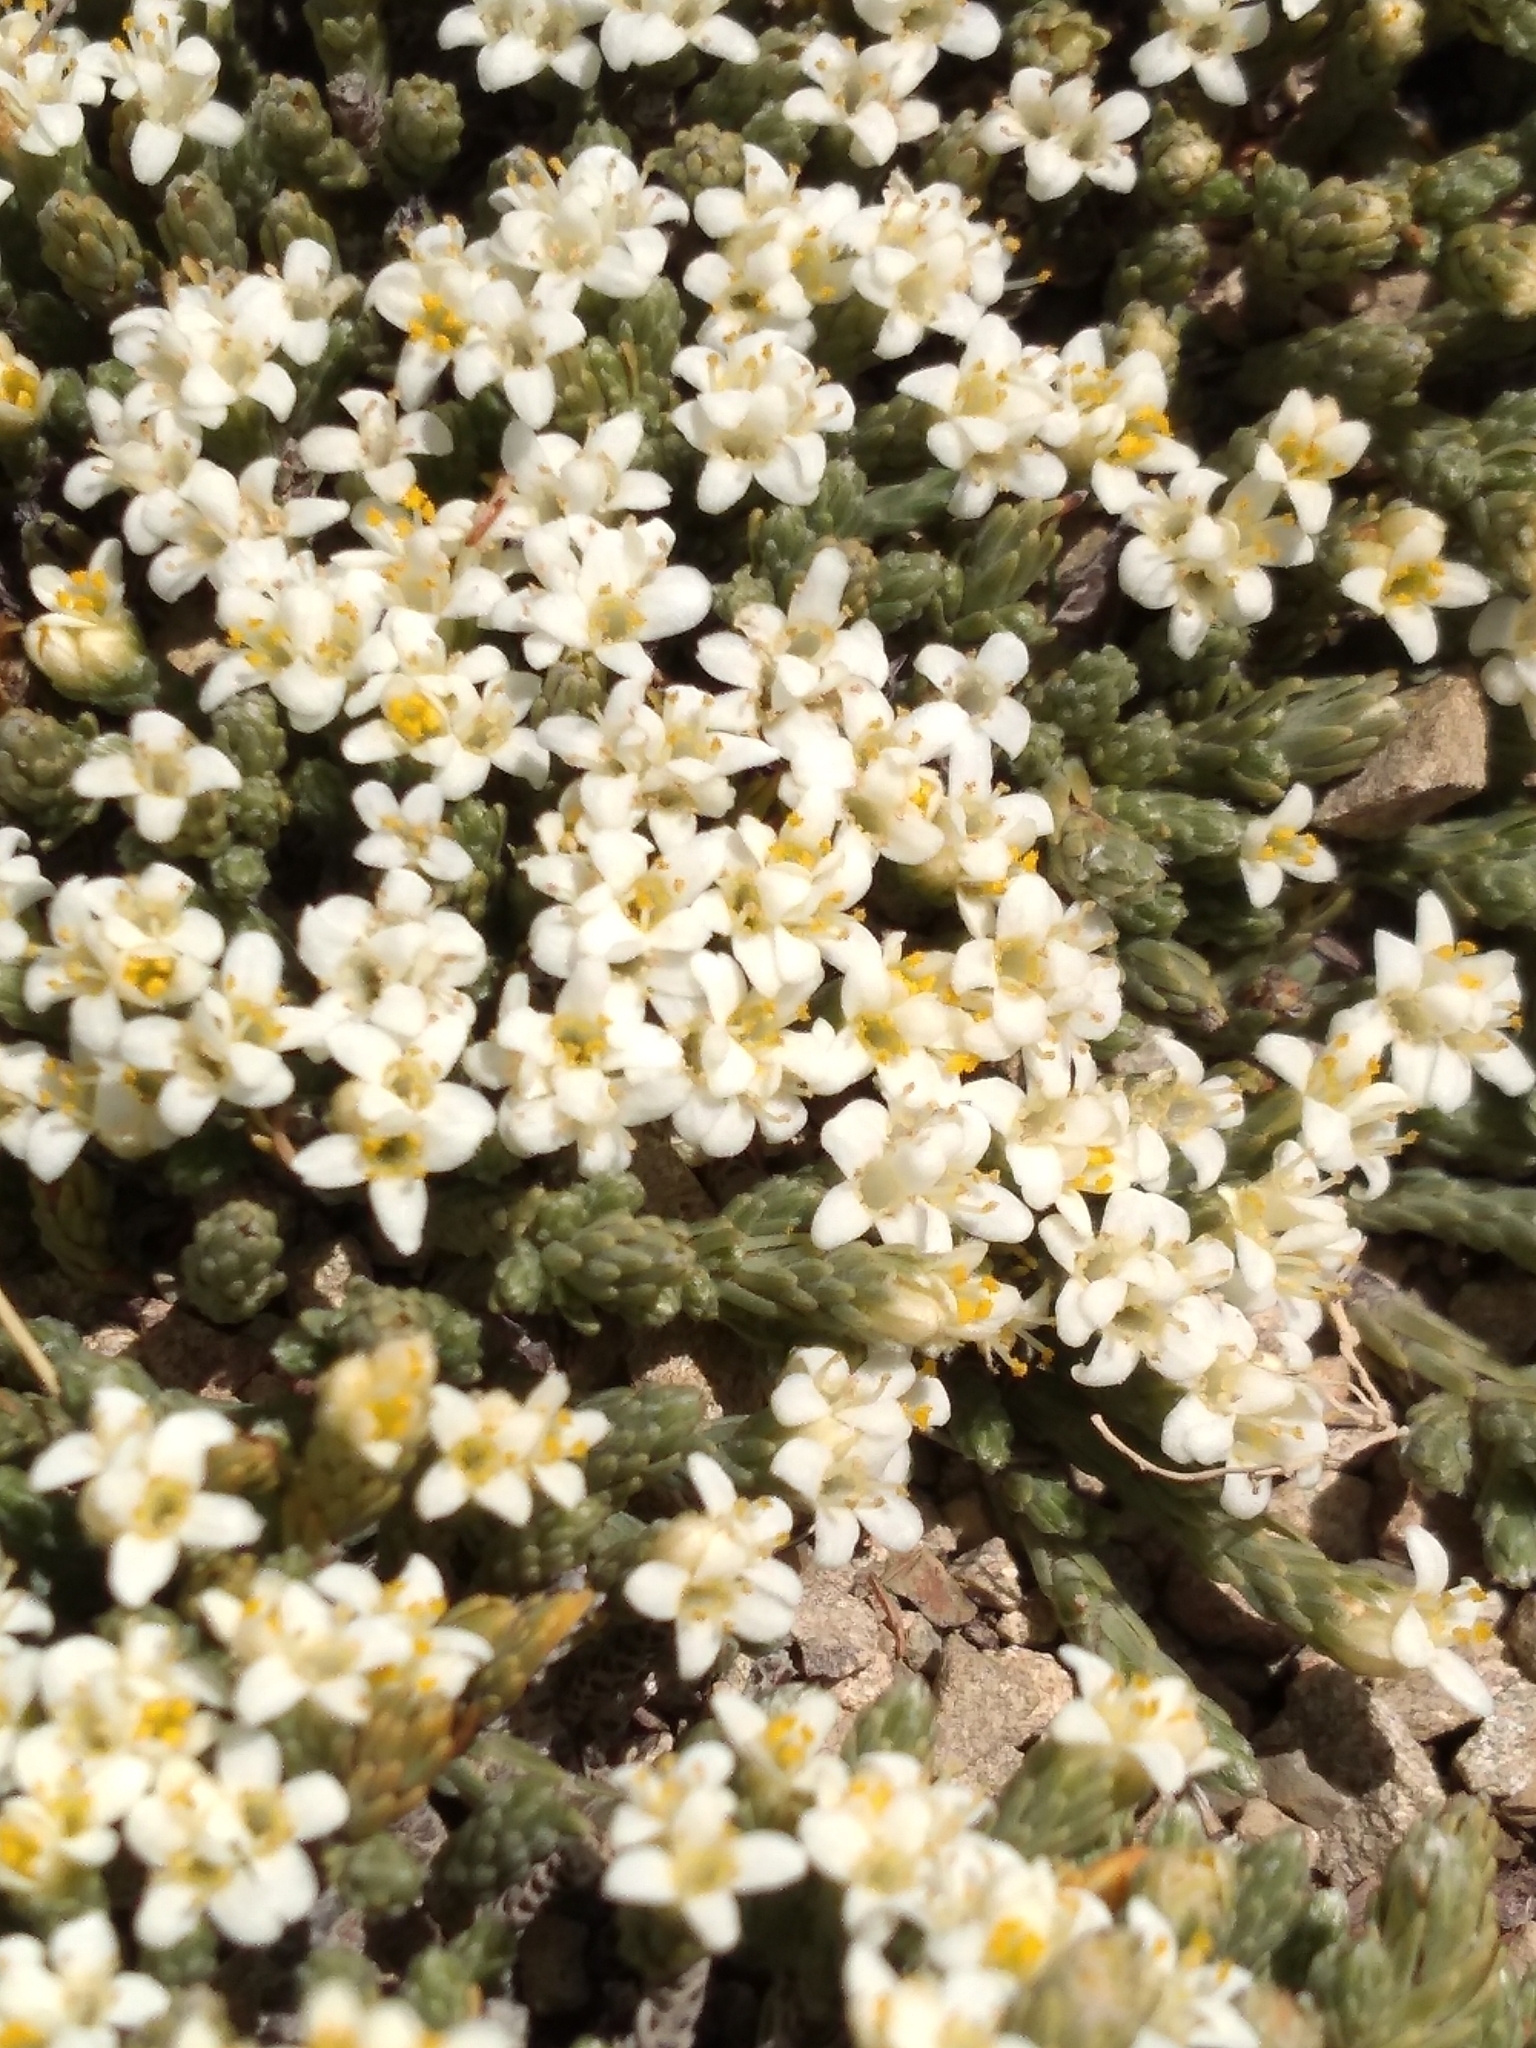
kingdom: Plantae
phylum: Tracheophyta
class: Magnoliopsida
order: Malvales
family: Thymelaeaceae
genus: Kelleria
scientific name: Kelleria dieffenbachii
